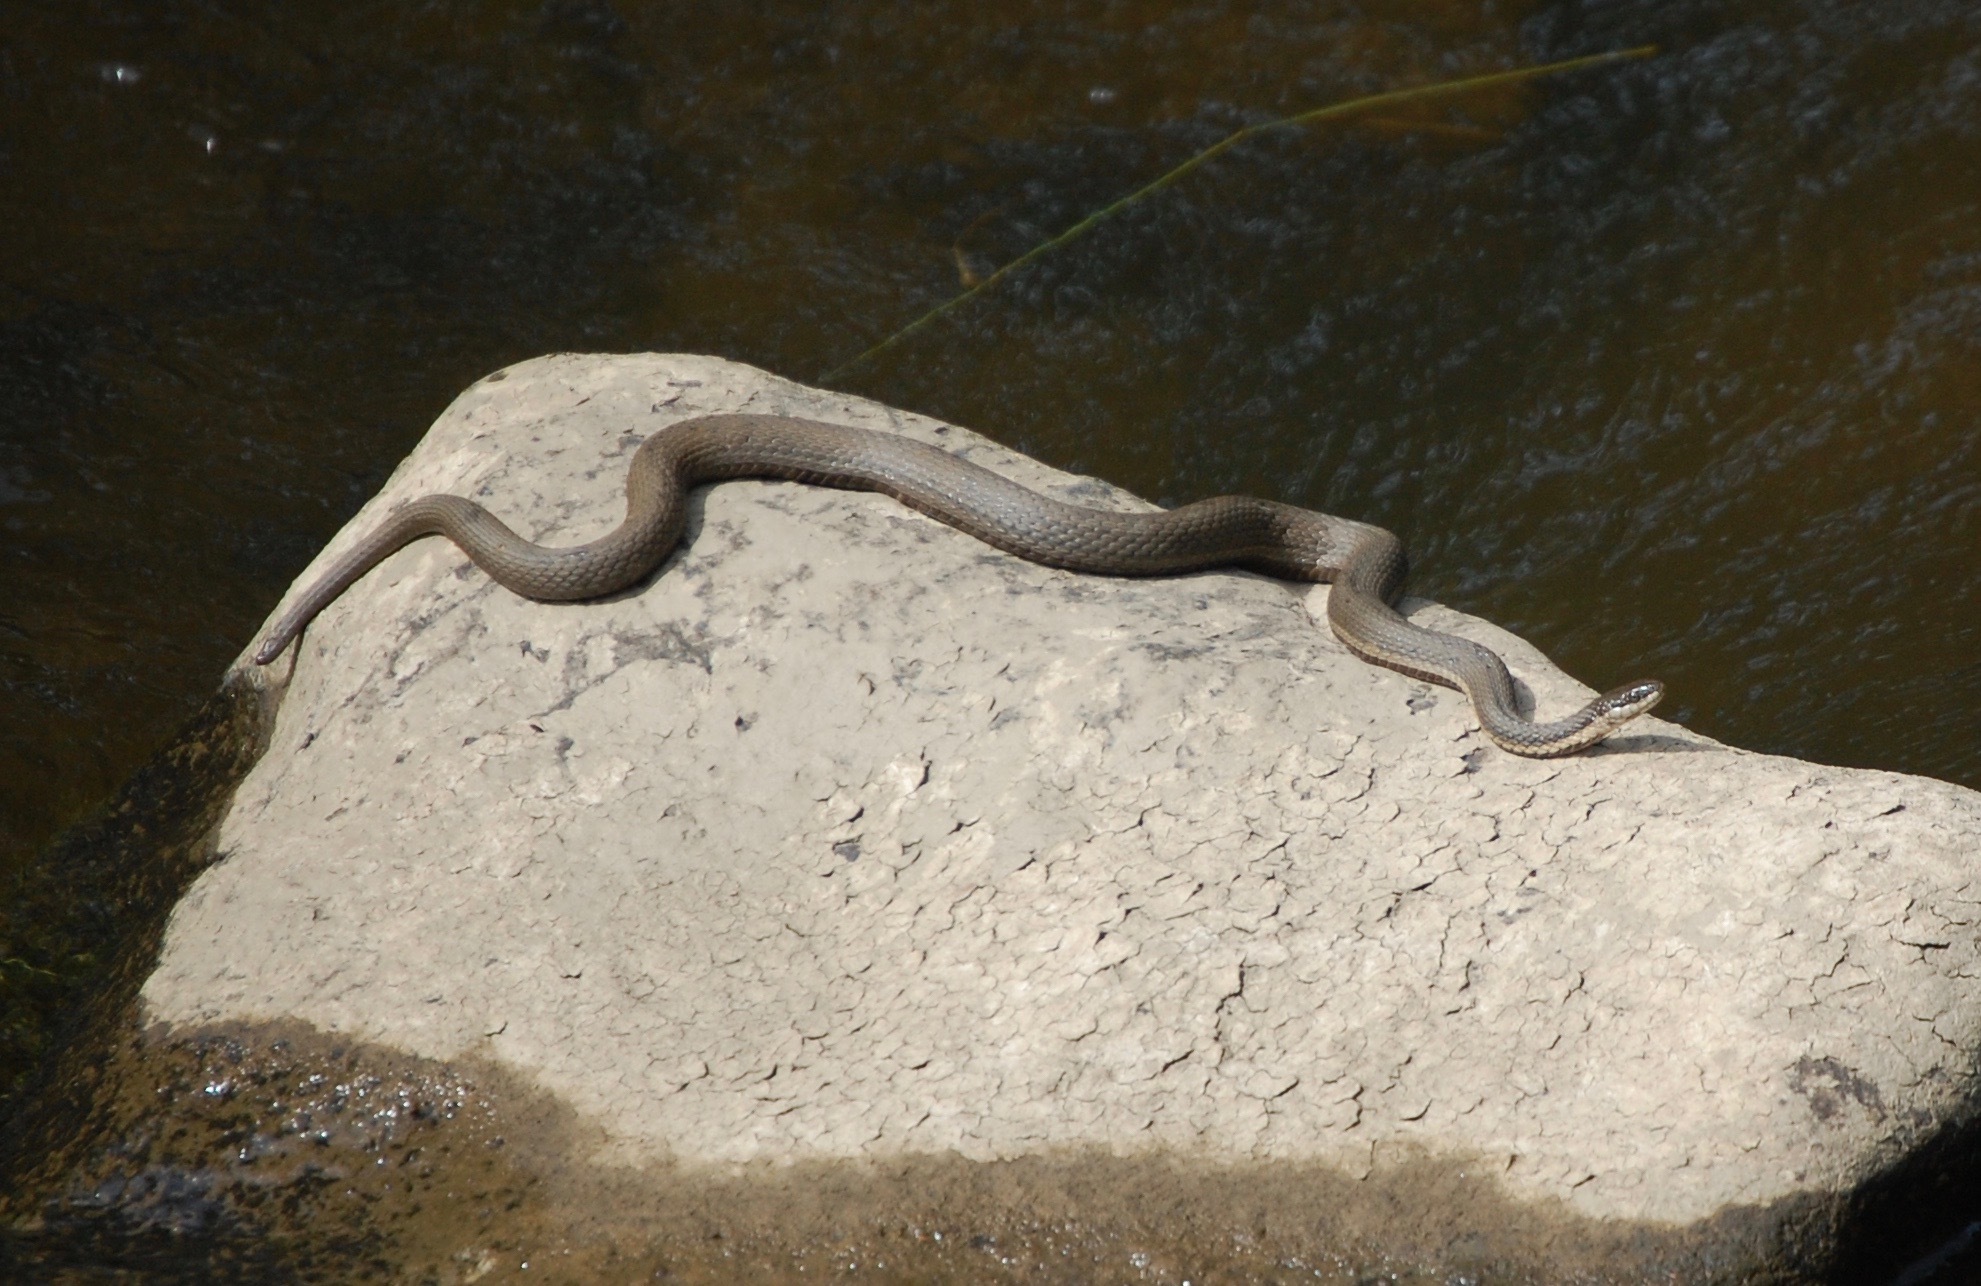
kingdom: Animalia
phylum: Chordata
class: Squamata
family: Colubridae
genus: Regina
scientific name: Regina septemvittata
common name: Queen snake
